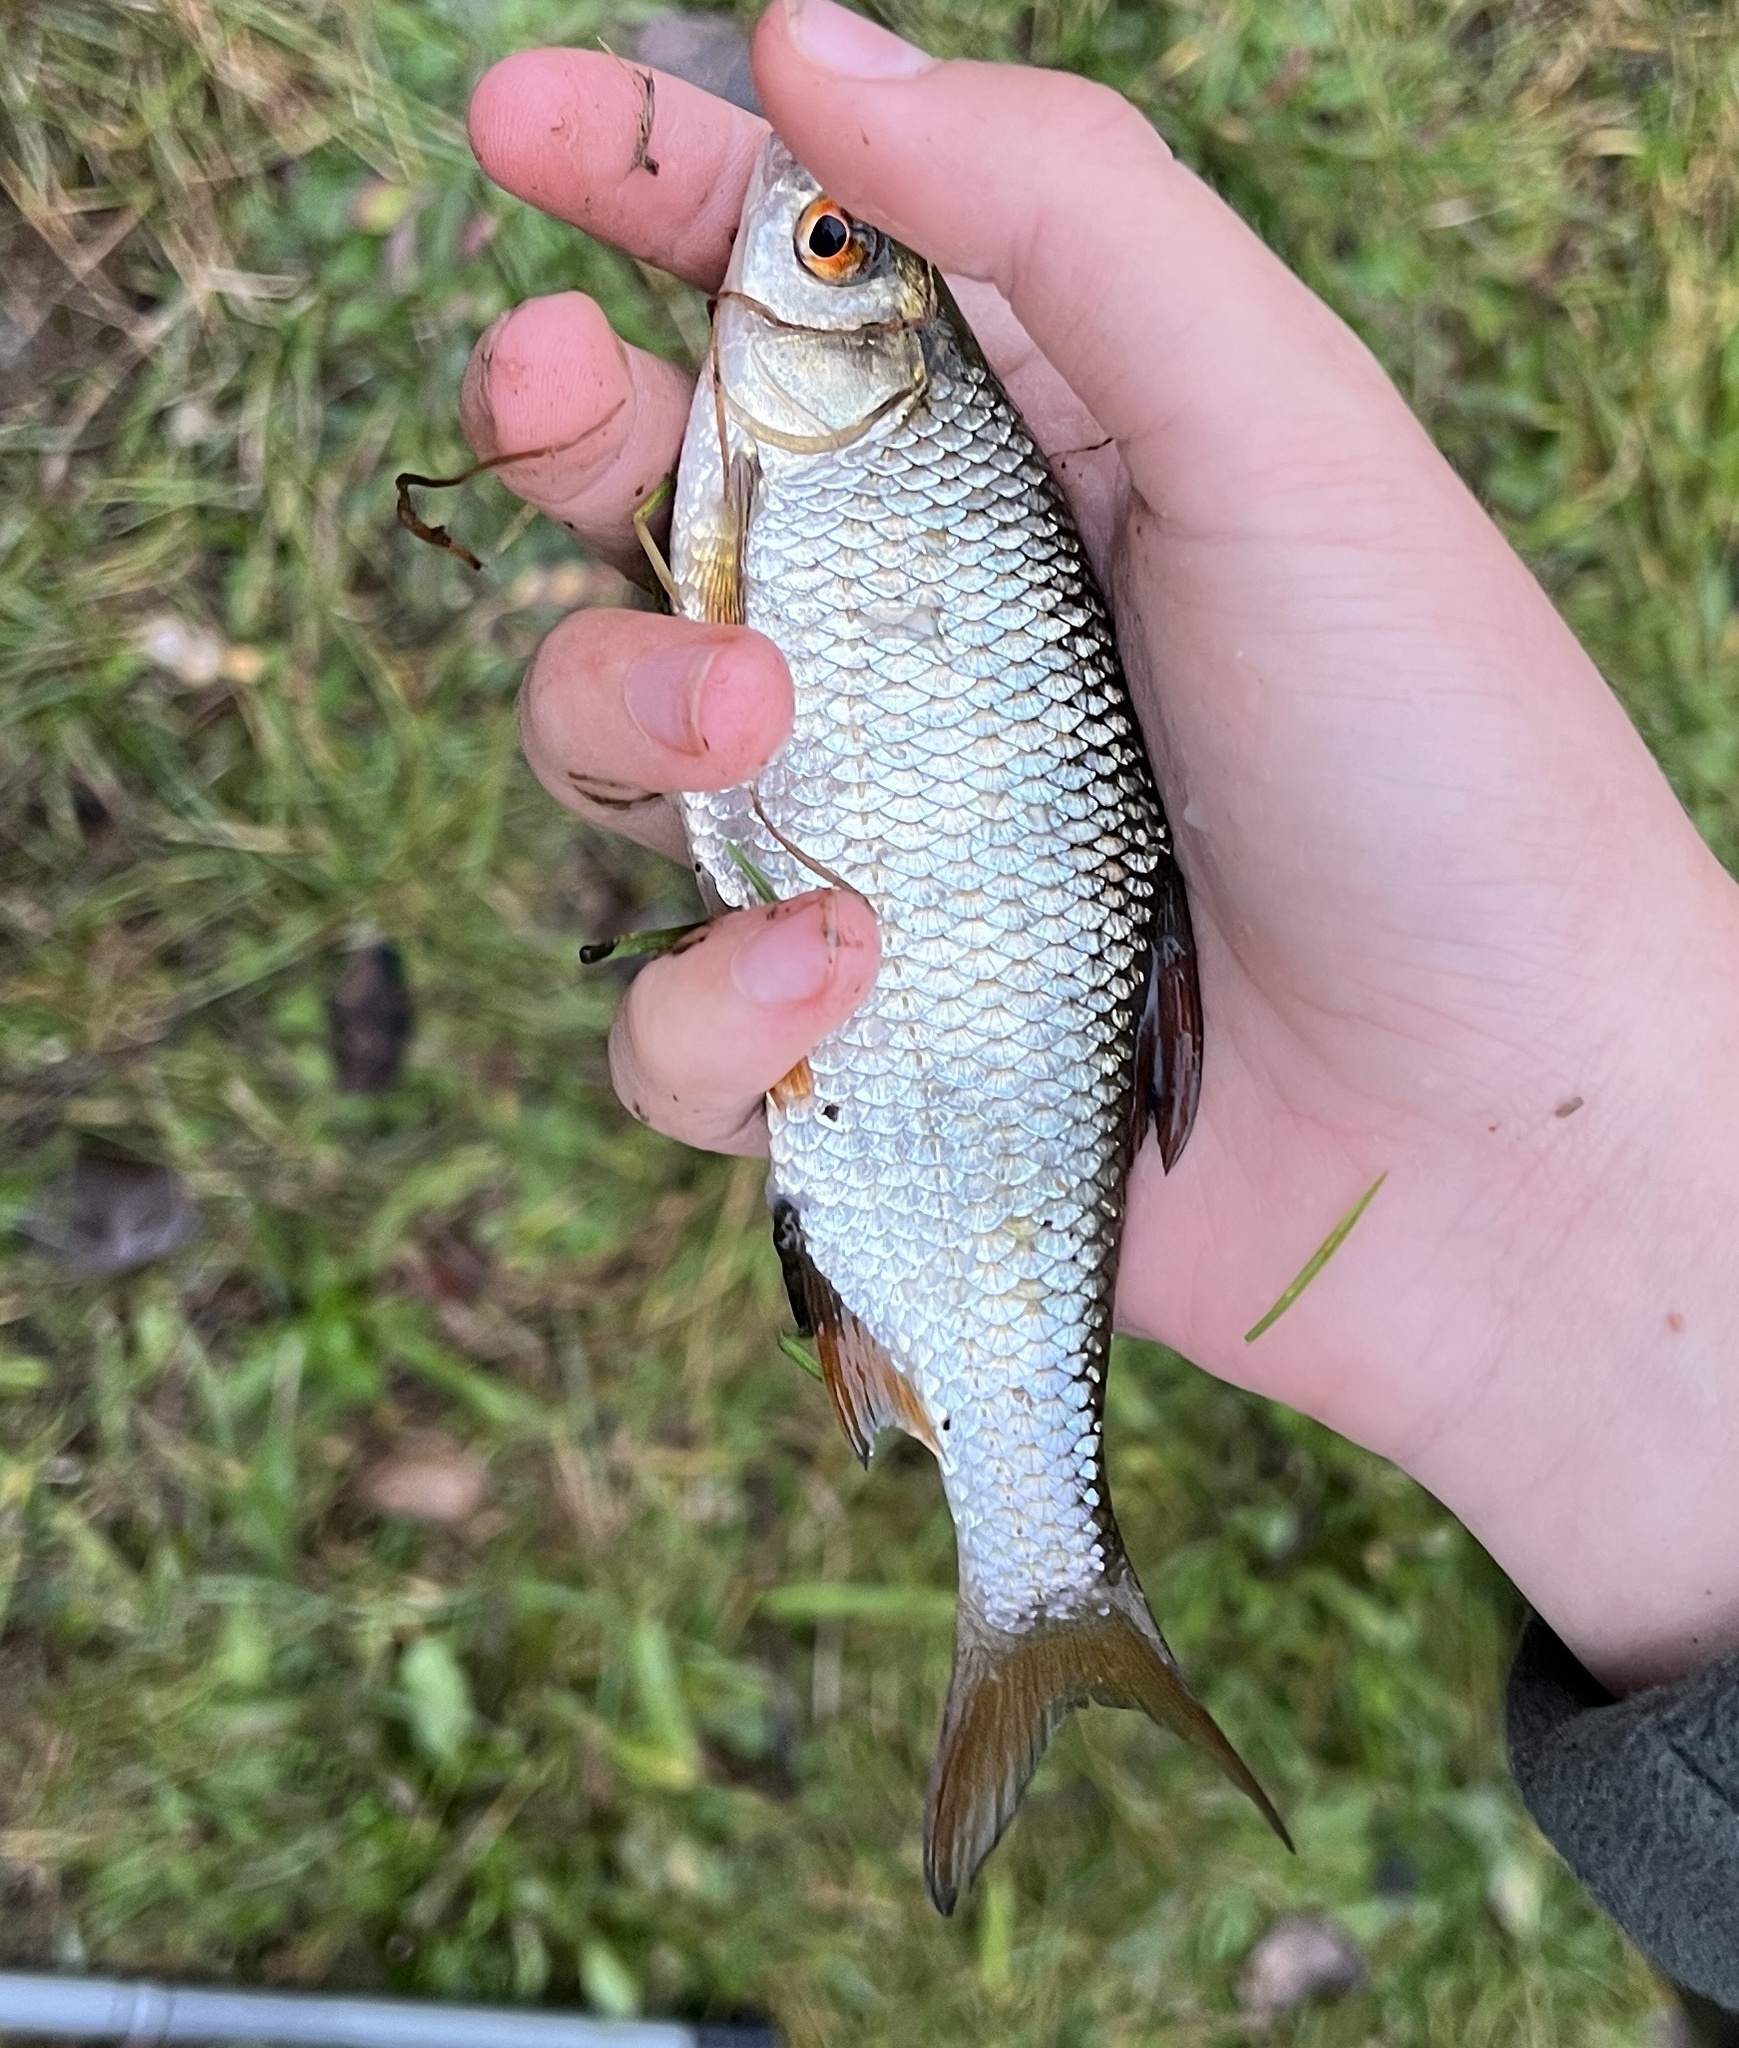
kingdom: Animalia
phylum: Chordata
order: Cypriniformes
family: Cyprinidae
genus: Rutilus
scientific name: Rutilus rutilus
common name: Roach
